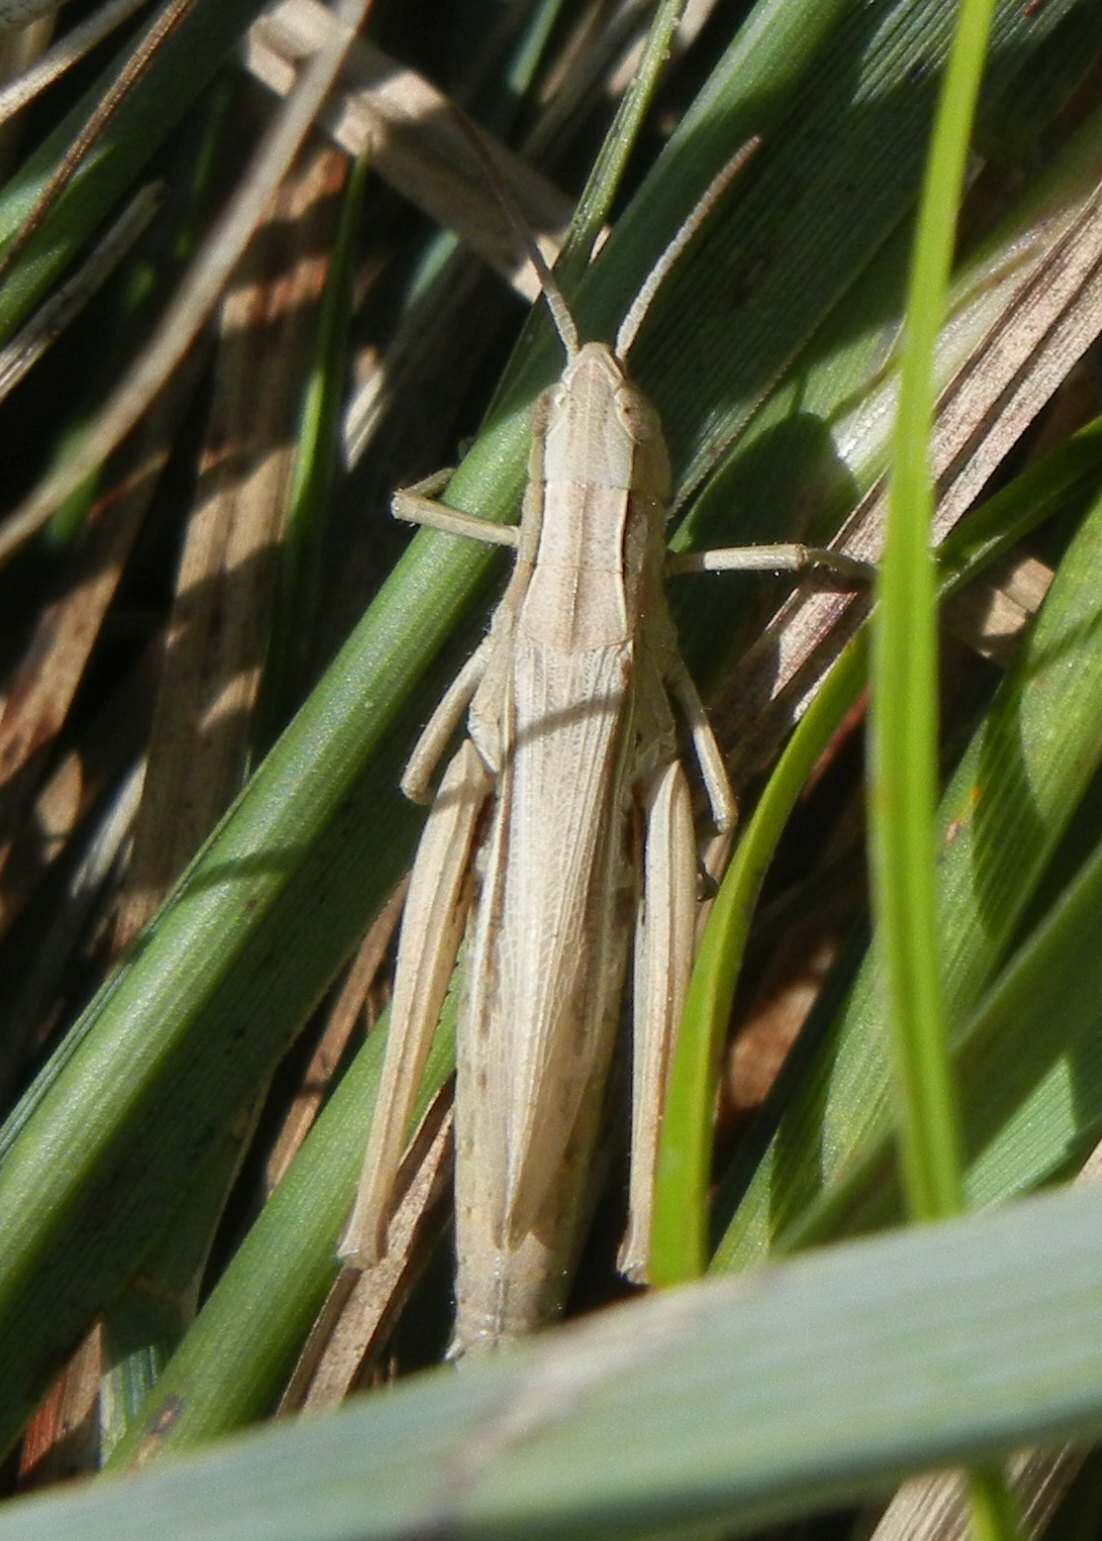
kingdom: Animalia
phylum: Arthropoda
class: Insecta
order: Orthoptera
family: Acrididae
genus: Chorthippus
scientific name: Chorthippus albomarginatus
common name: Lesser marsh grasshopper
